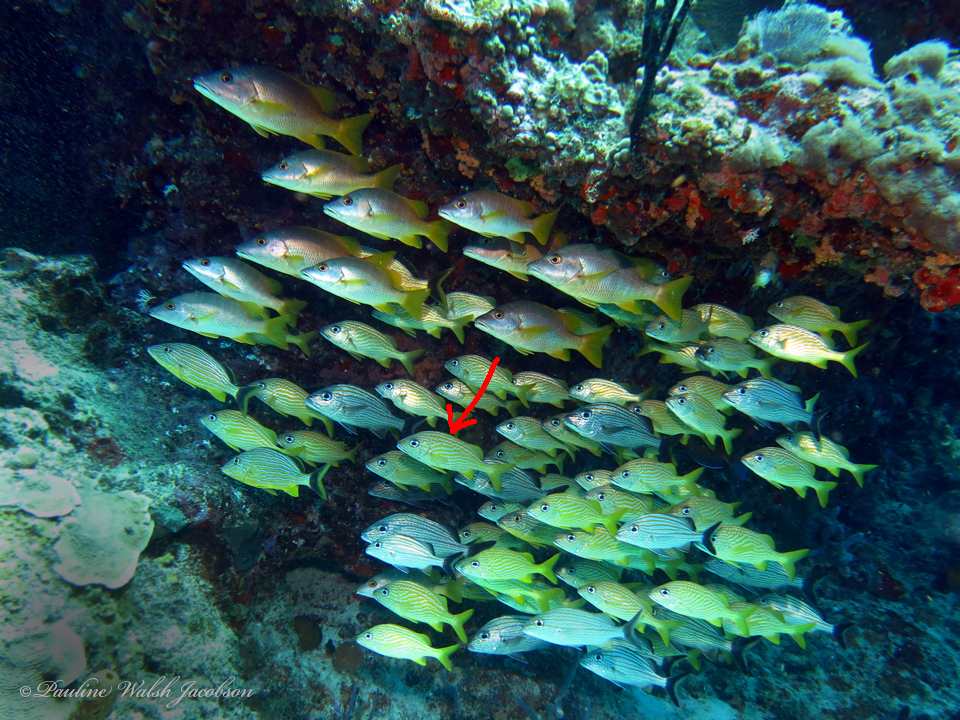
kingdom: Animalia
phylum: Chordata
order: Perciformes
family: Haemulidae
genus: Haemulon
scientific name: Haemulon flavolineatum
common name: French grunt
